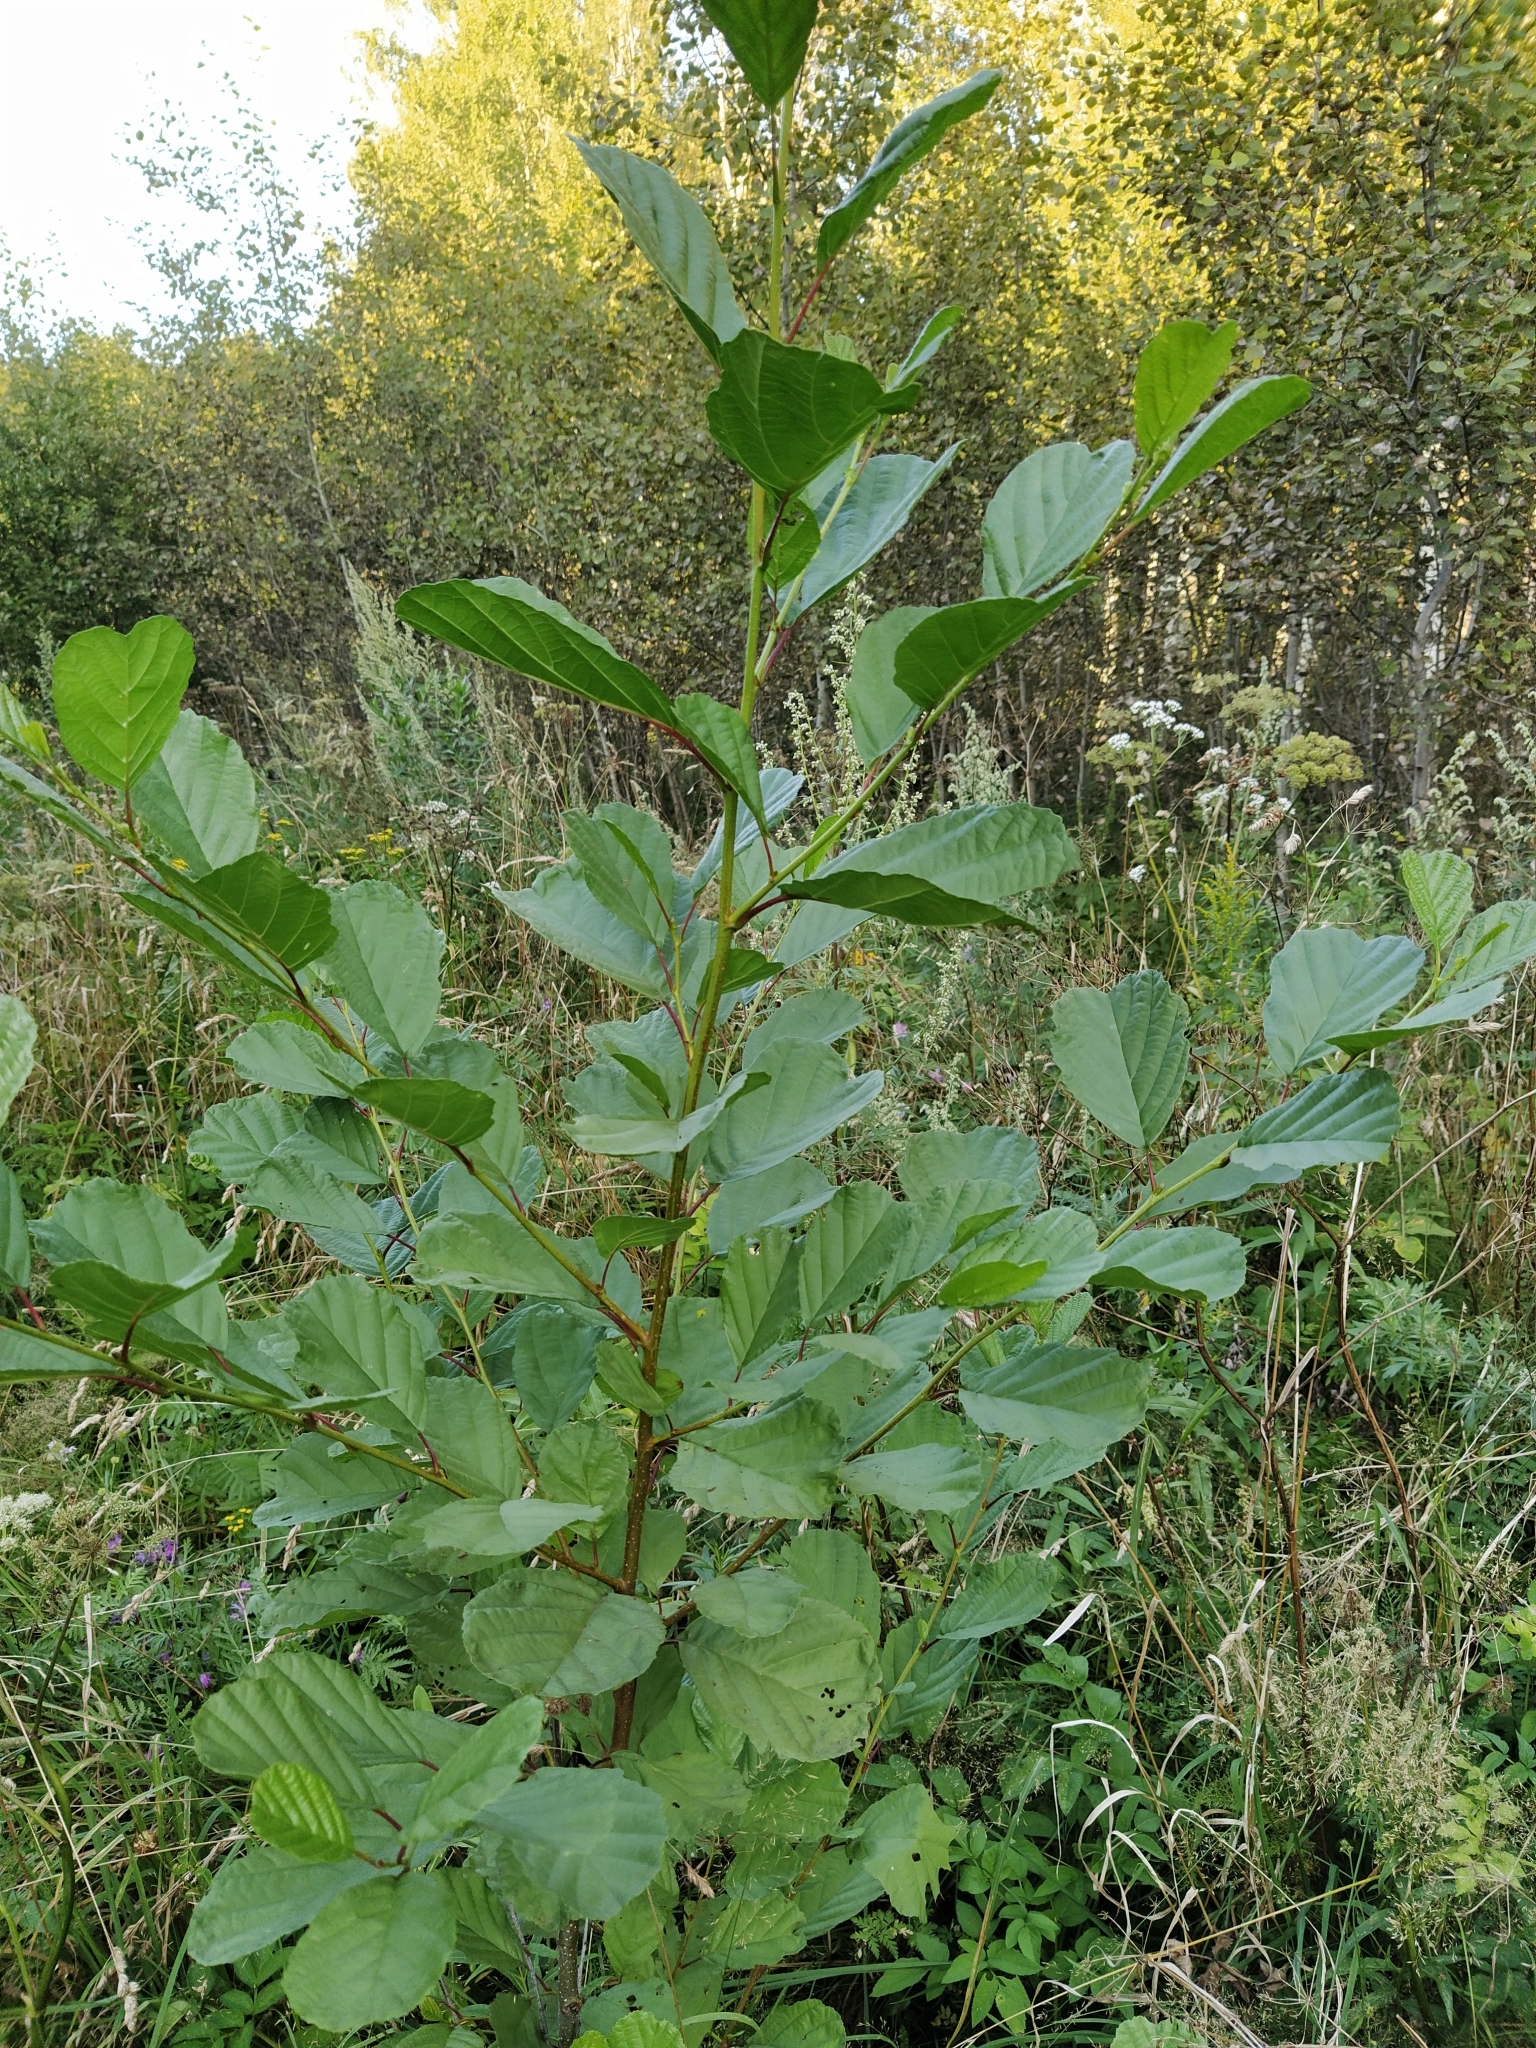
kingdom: Plantae
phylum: Tracheophyta
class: Magnoliopsida
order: Fagales
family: Betulaceae
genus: Alnus
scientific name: Alnus glutinosa
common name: Black alder
